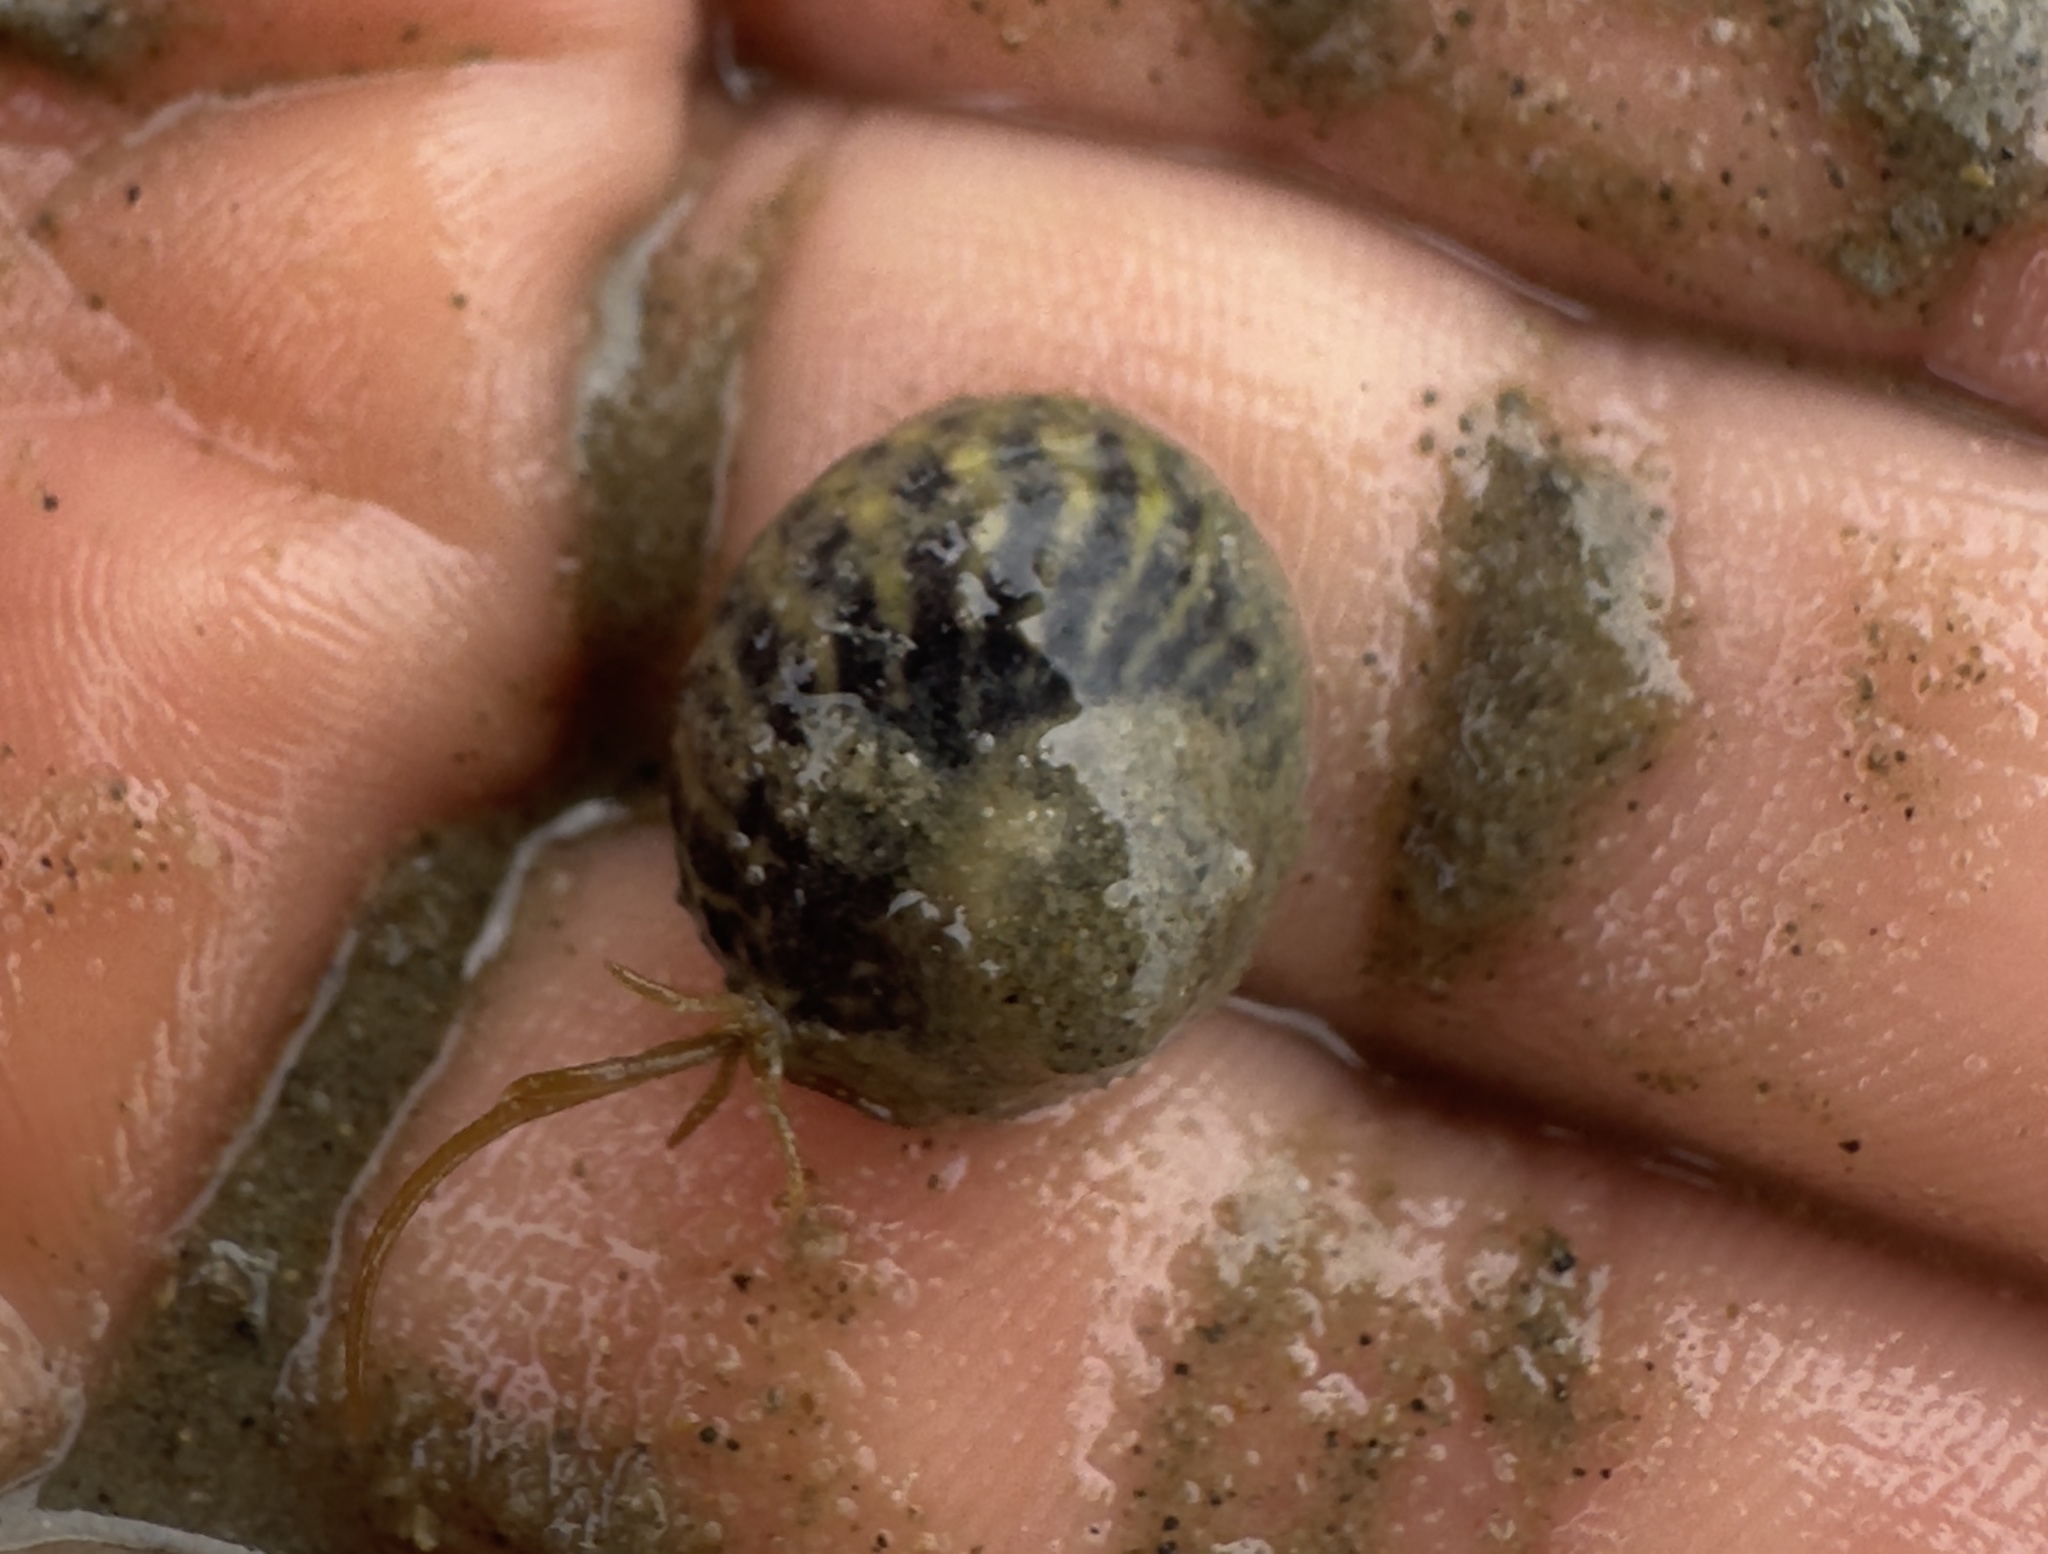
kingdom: Animalia
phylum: Mollusca
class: Gastropoda
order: Trochida
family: Trochidae
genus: Diloma
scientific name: Diloma subrostratum
